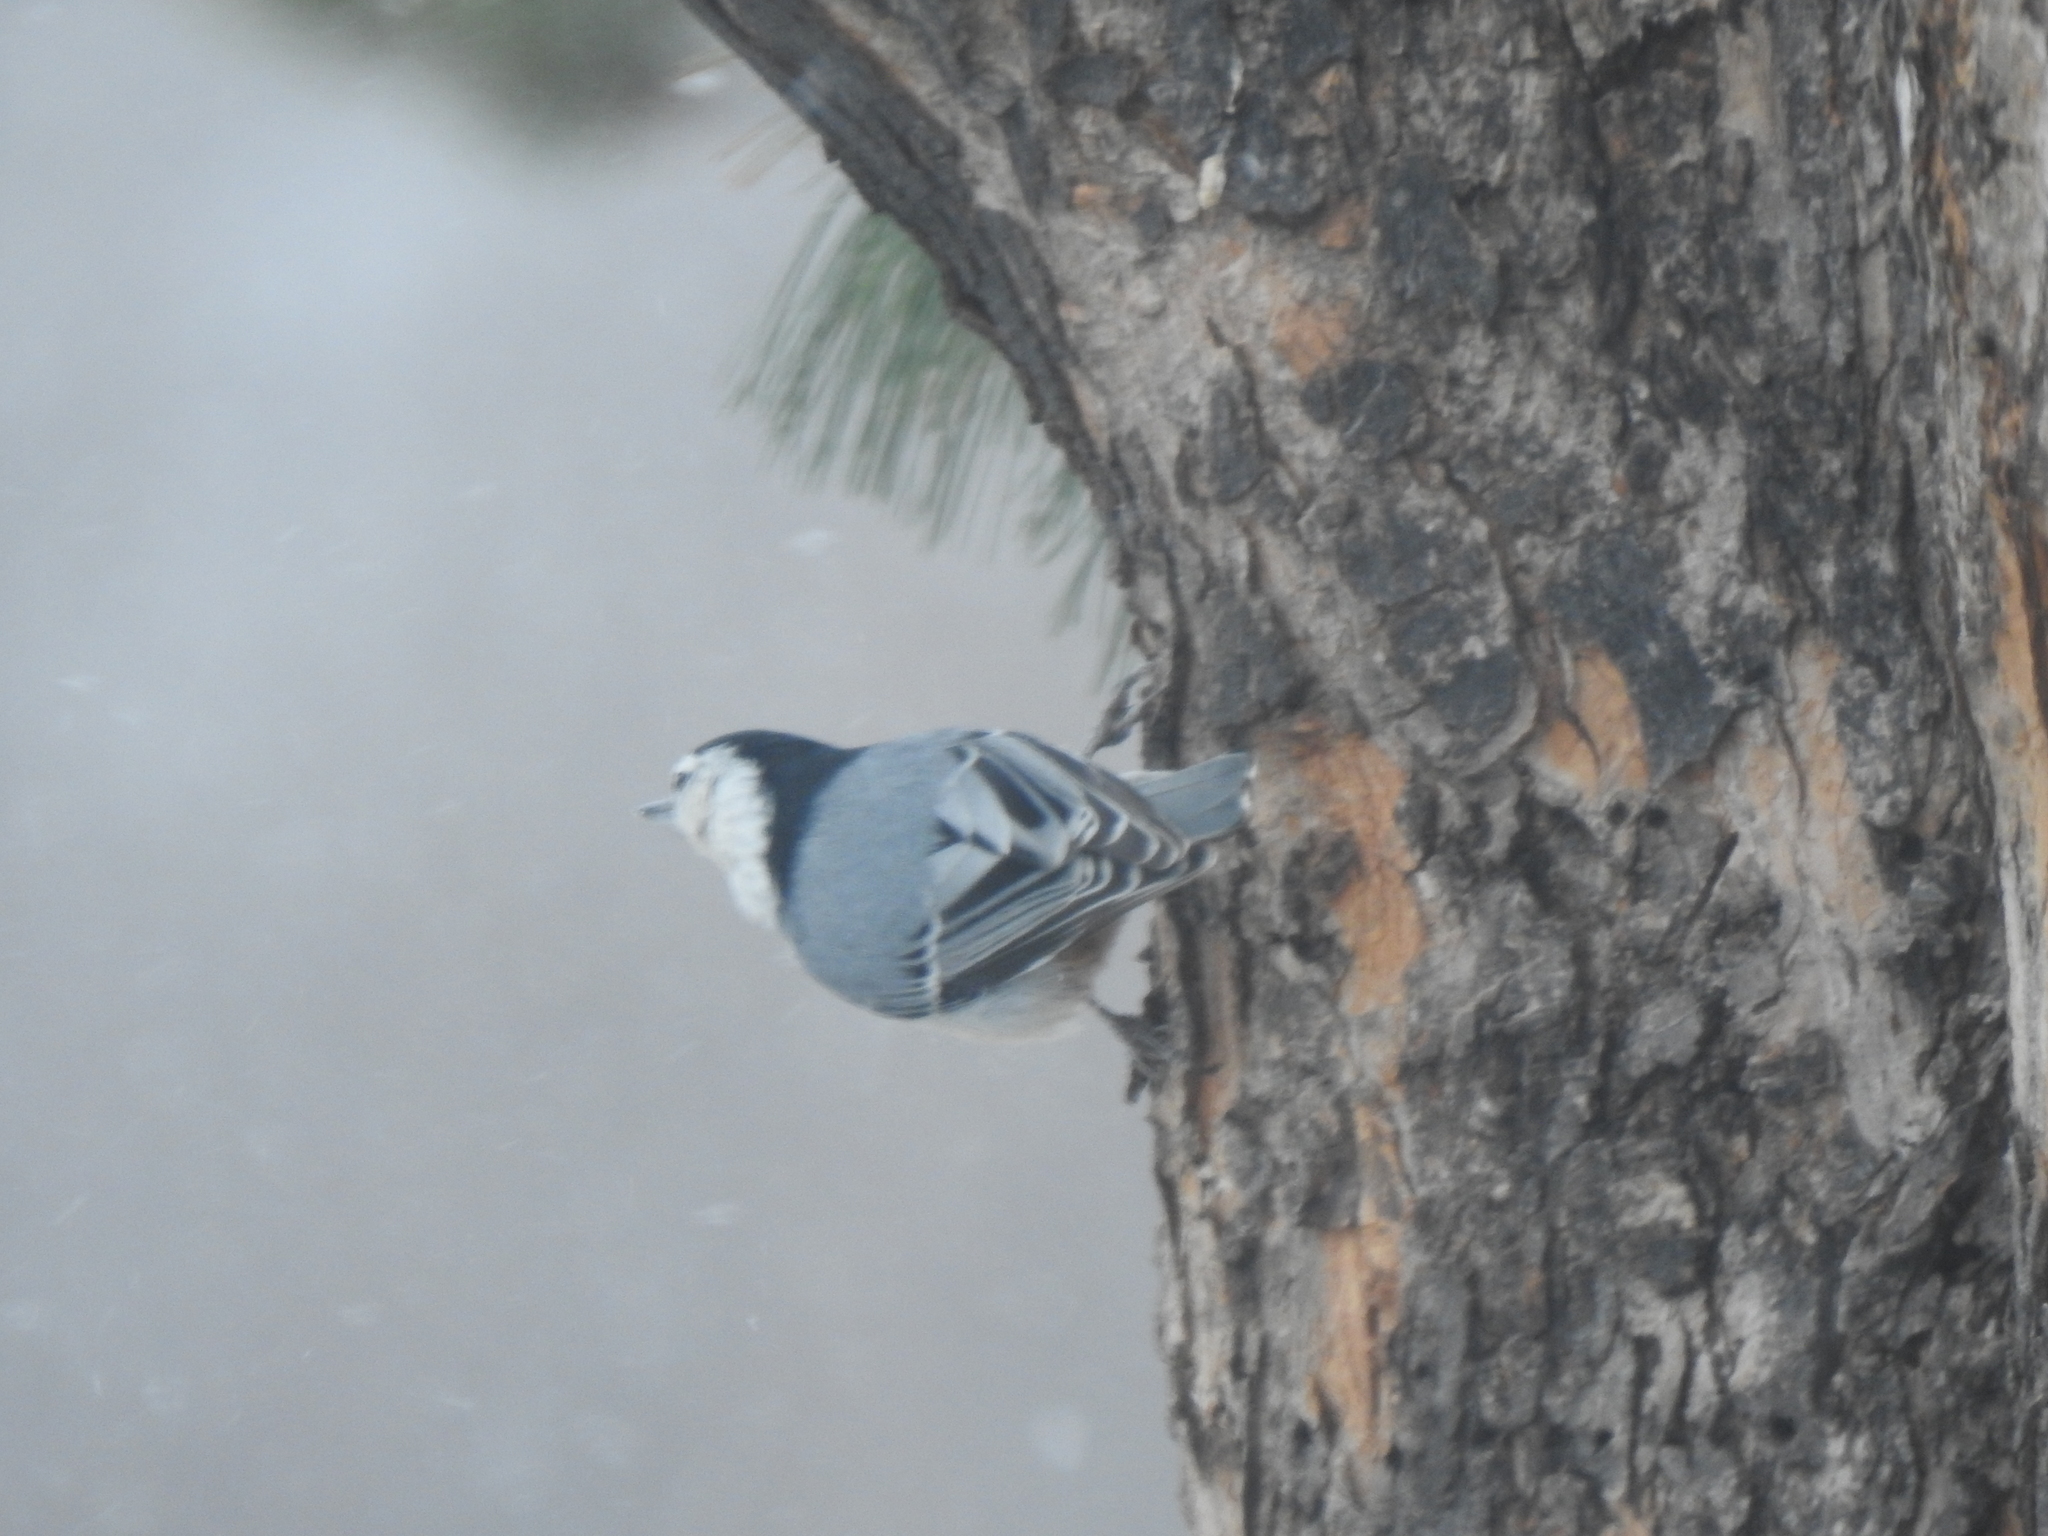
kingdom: Animalia
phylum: Chordata
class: Aves
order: Passeriformes
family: Sittidae
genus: Sitta
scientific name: Sitta carolinensis
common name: White-breasted nuthatch
